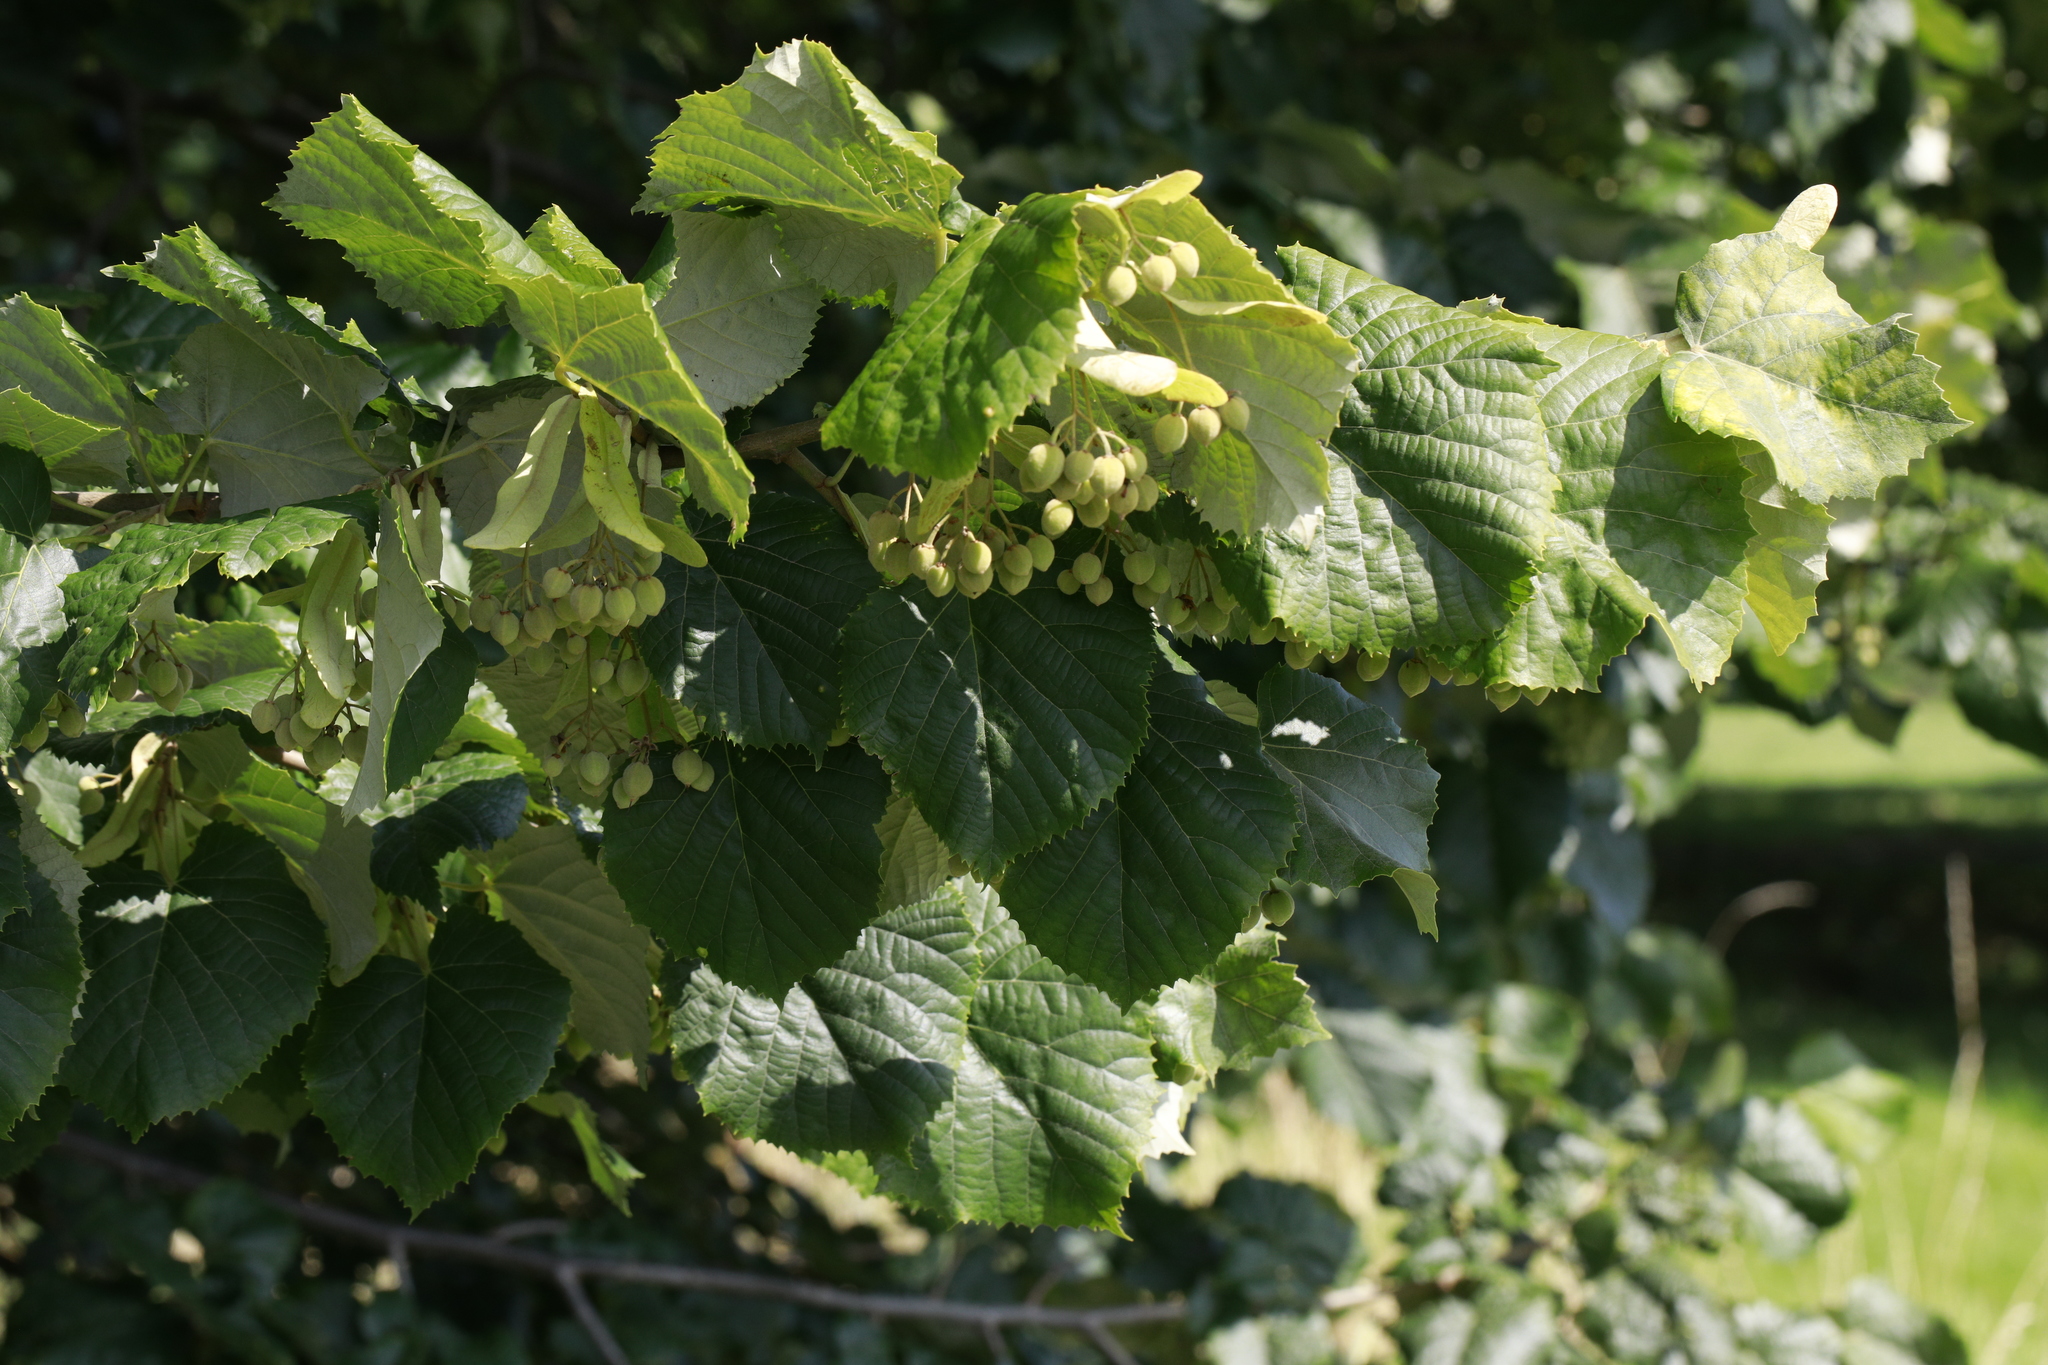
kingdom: Plantae
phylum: Tracheophyta
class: Magnoliopsida
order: Malvales
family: Malvaceae
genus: Tilia
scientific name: Tilia tomentosa
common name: Silver lime
